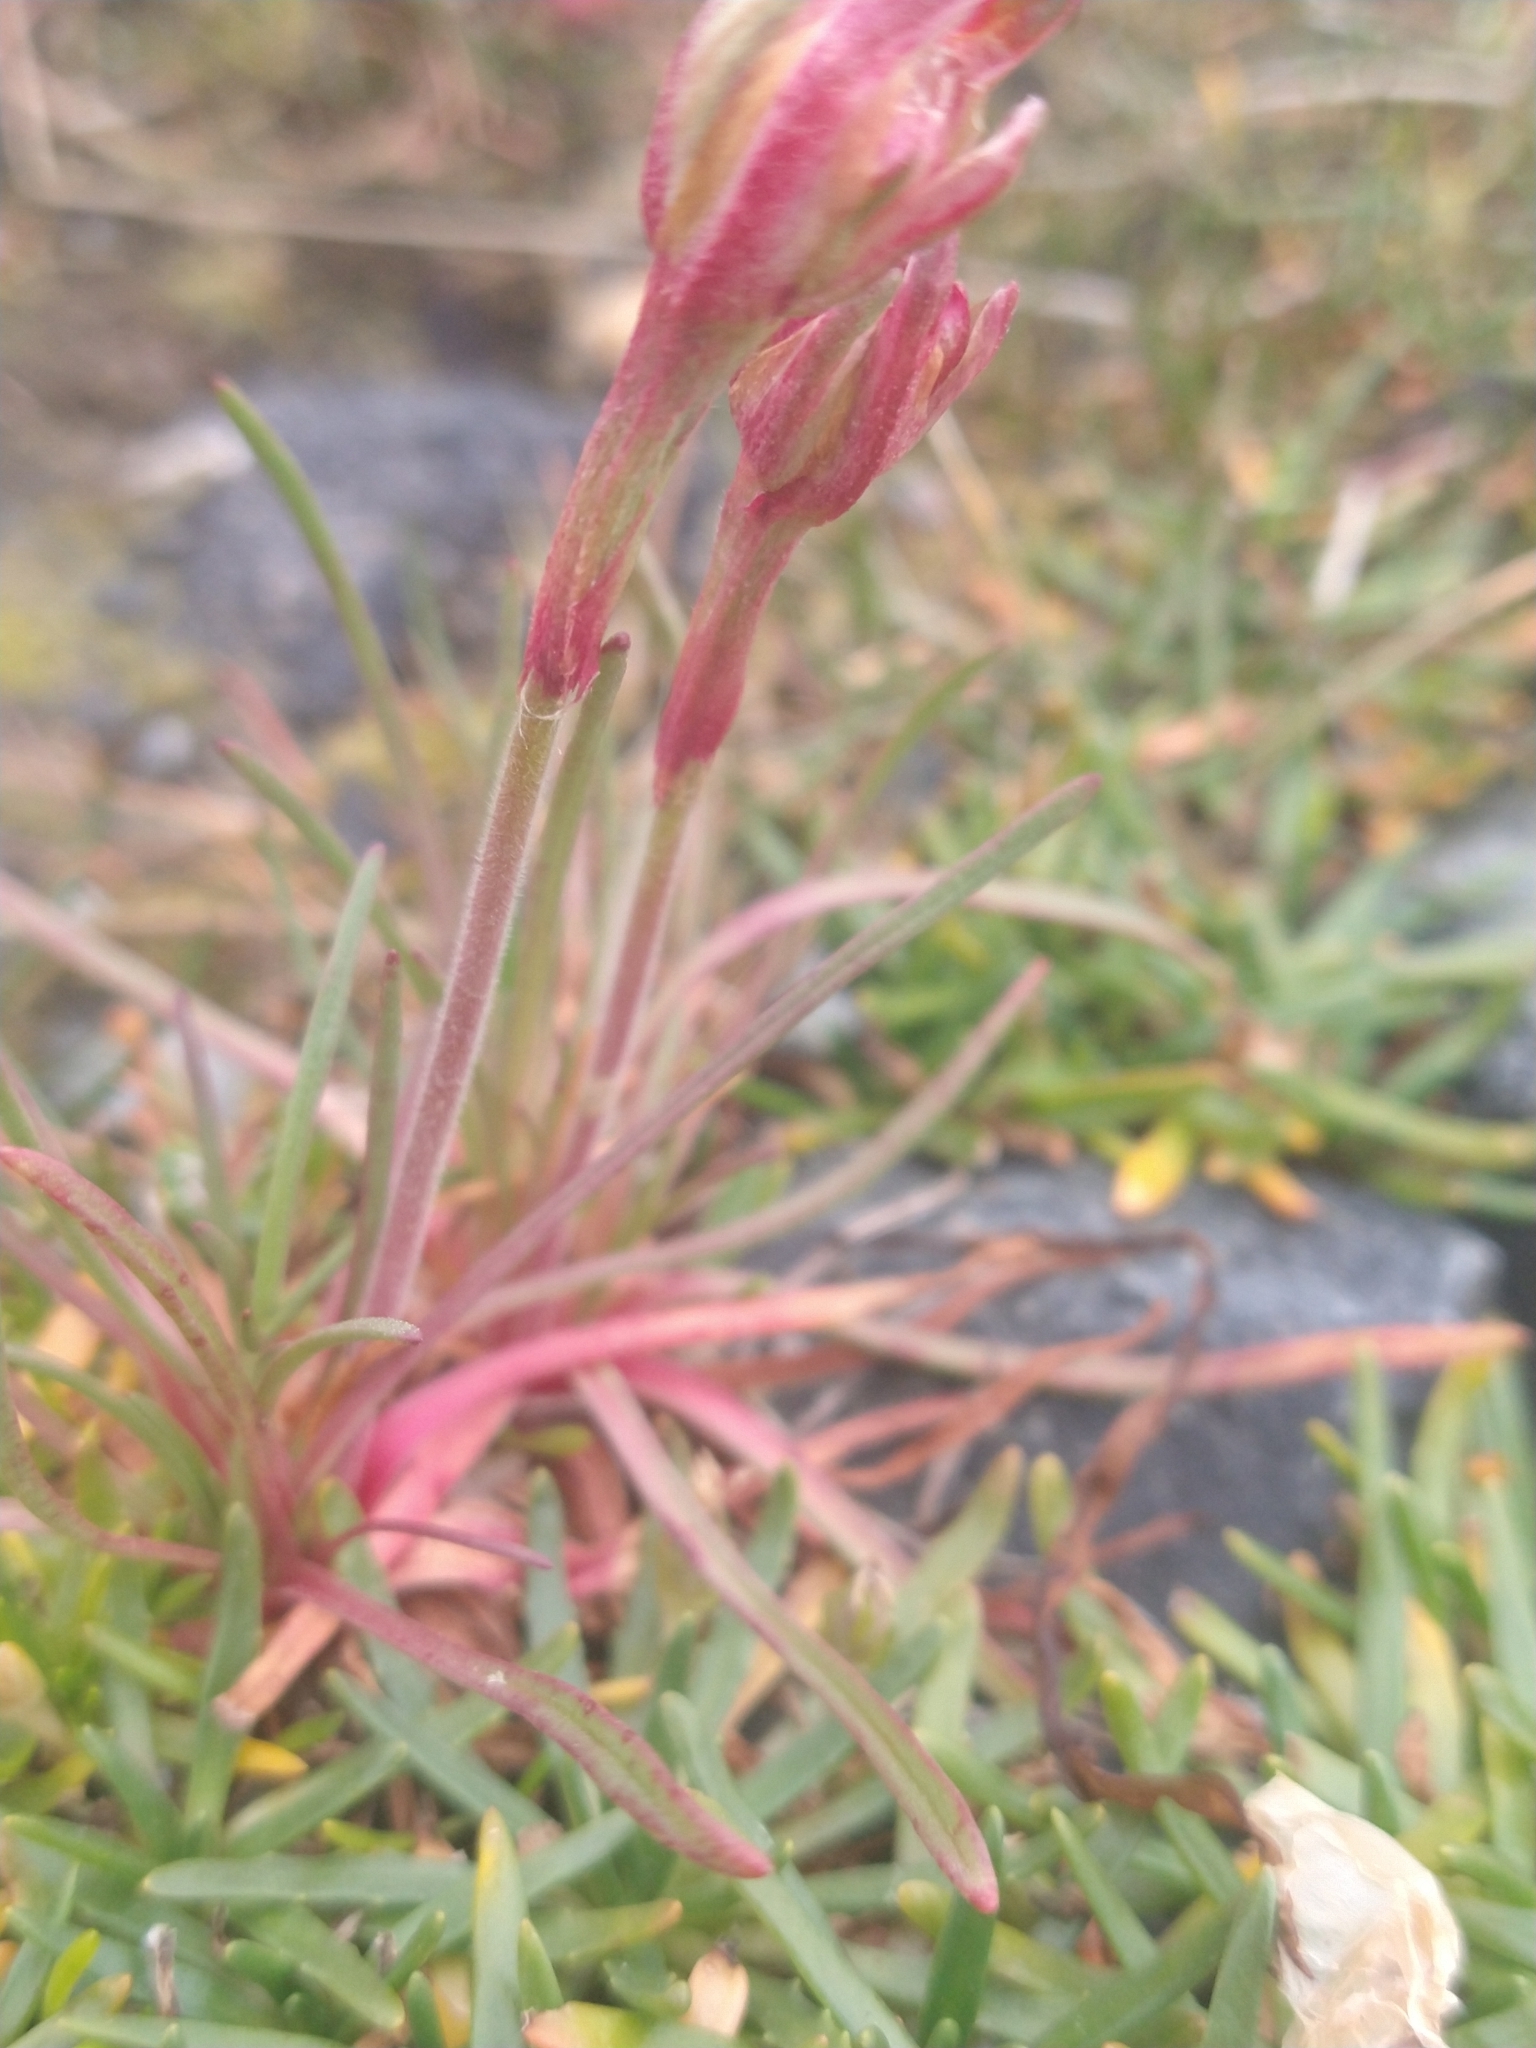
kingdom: Plantae
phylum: Tracheophyta
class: Magnoliopsida
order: Caryophyllales
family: Plumbaginaceae
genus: Armeria
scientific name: Armeria curvifolia
